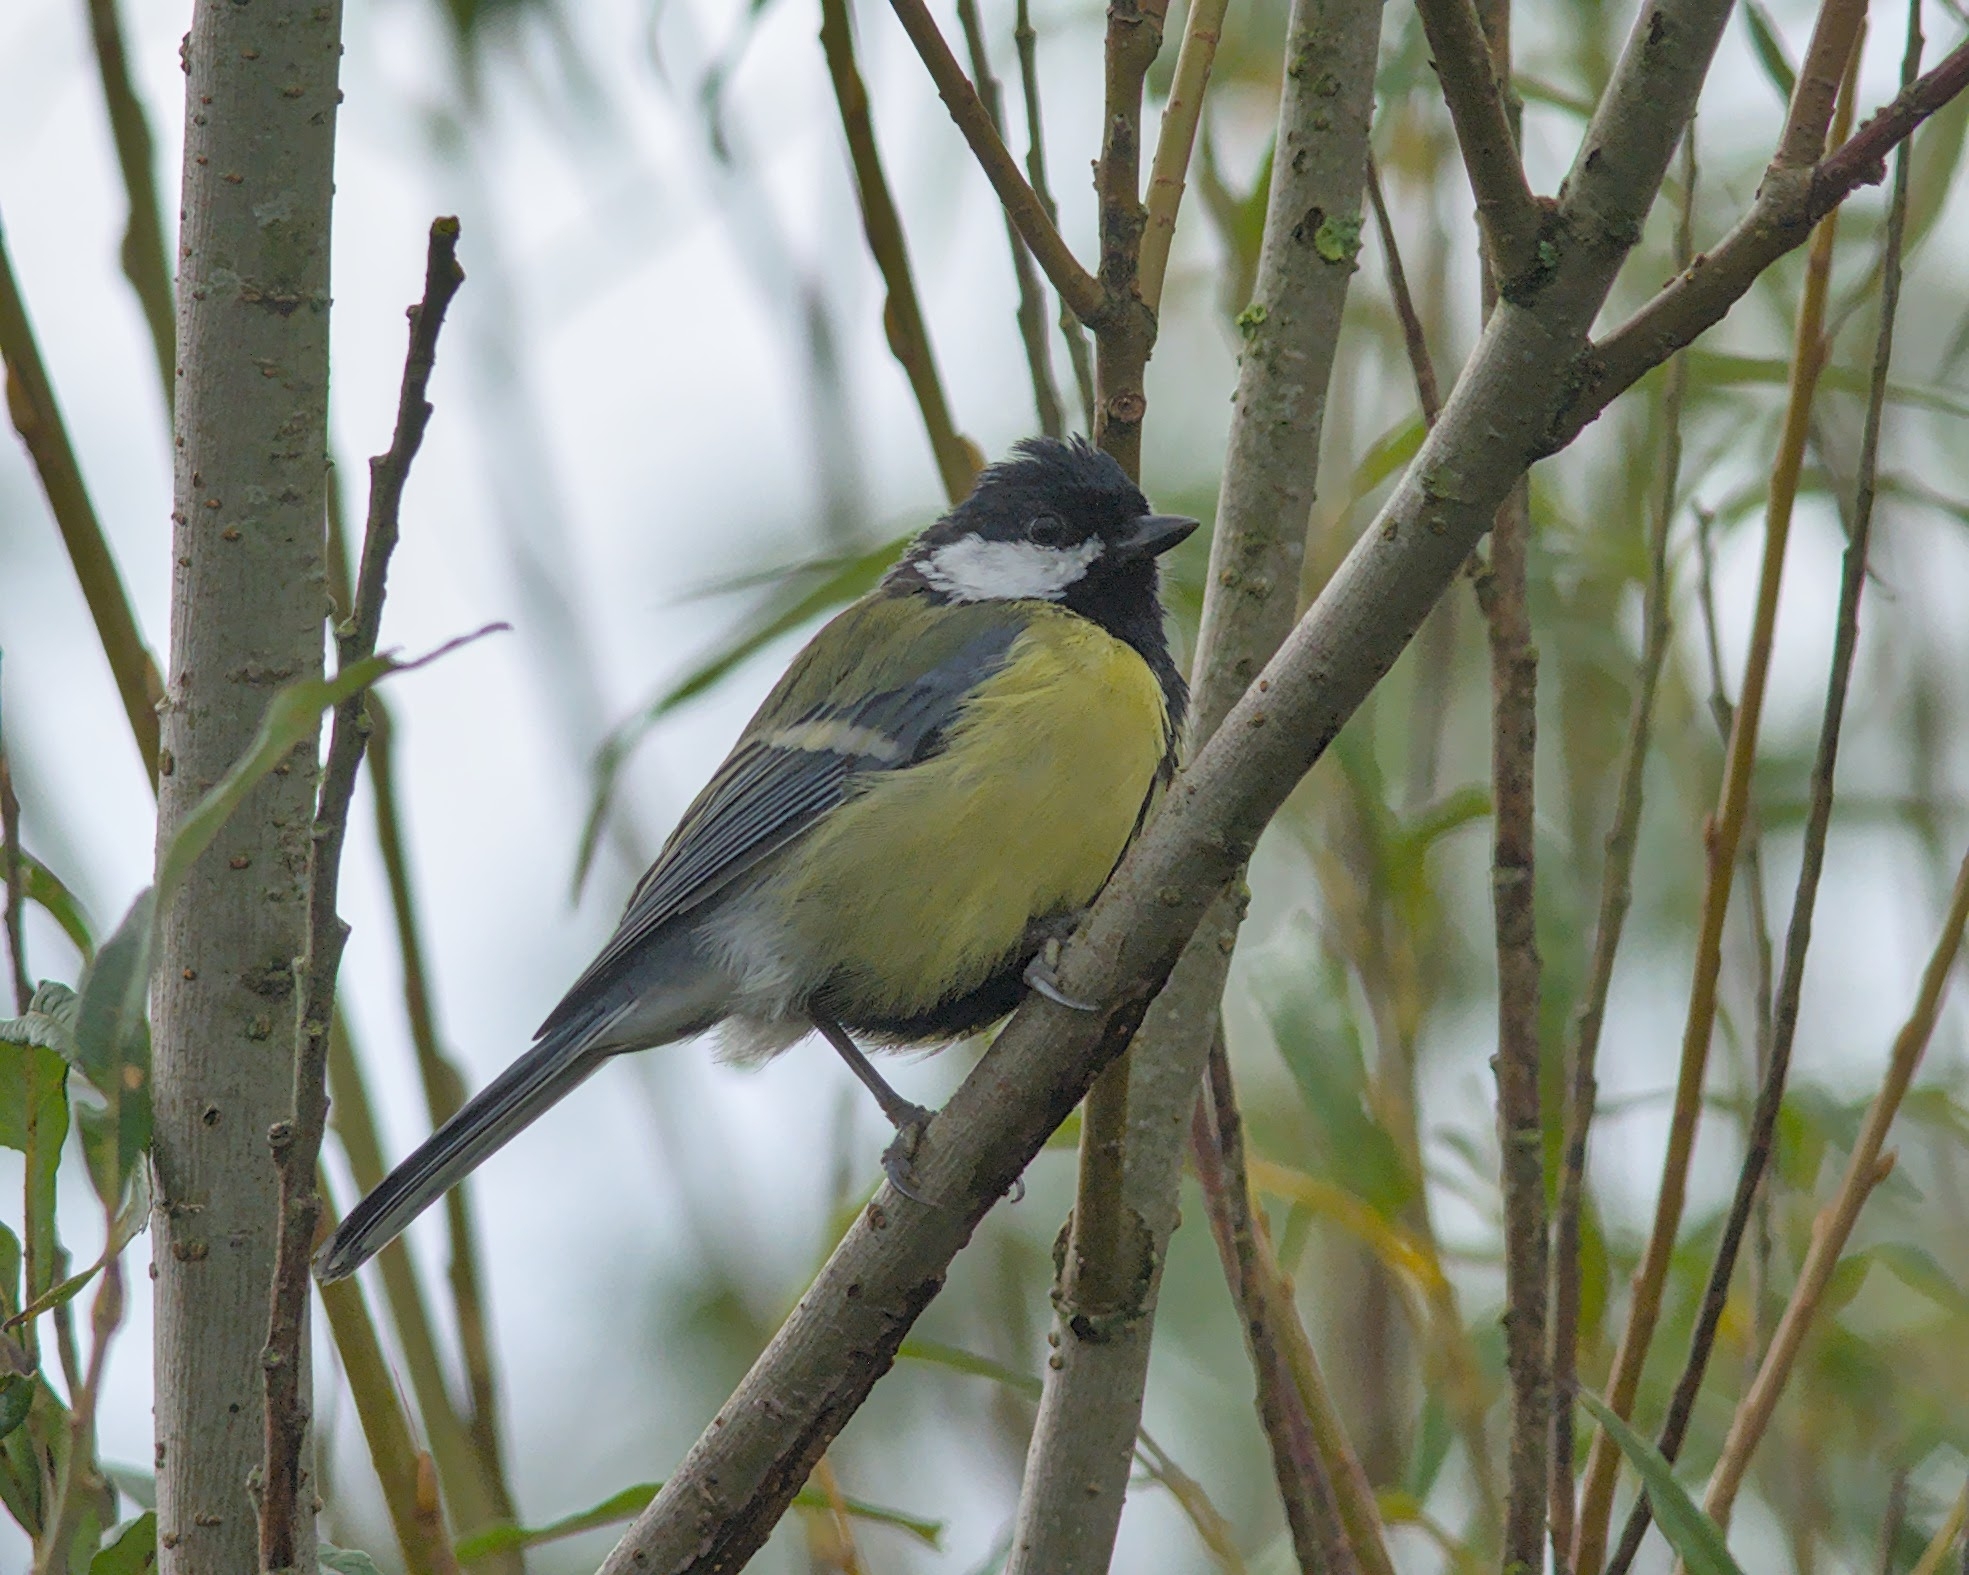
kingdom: Animalia
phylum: Chordata
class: Aves
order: Passeriformes
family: Paridae
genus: Parus
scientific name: Parus major
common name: Great tit
